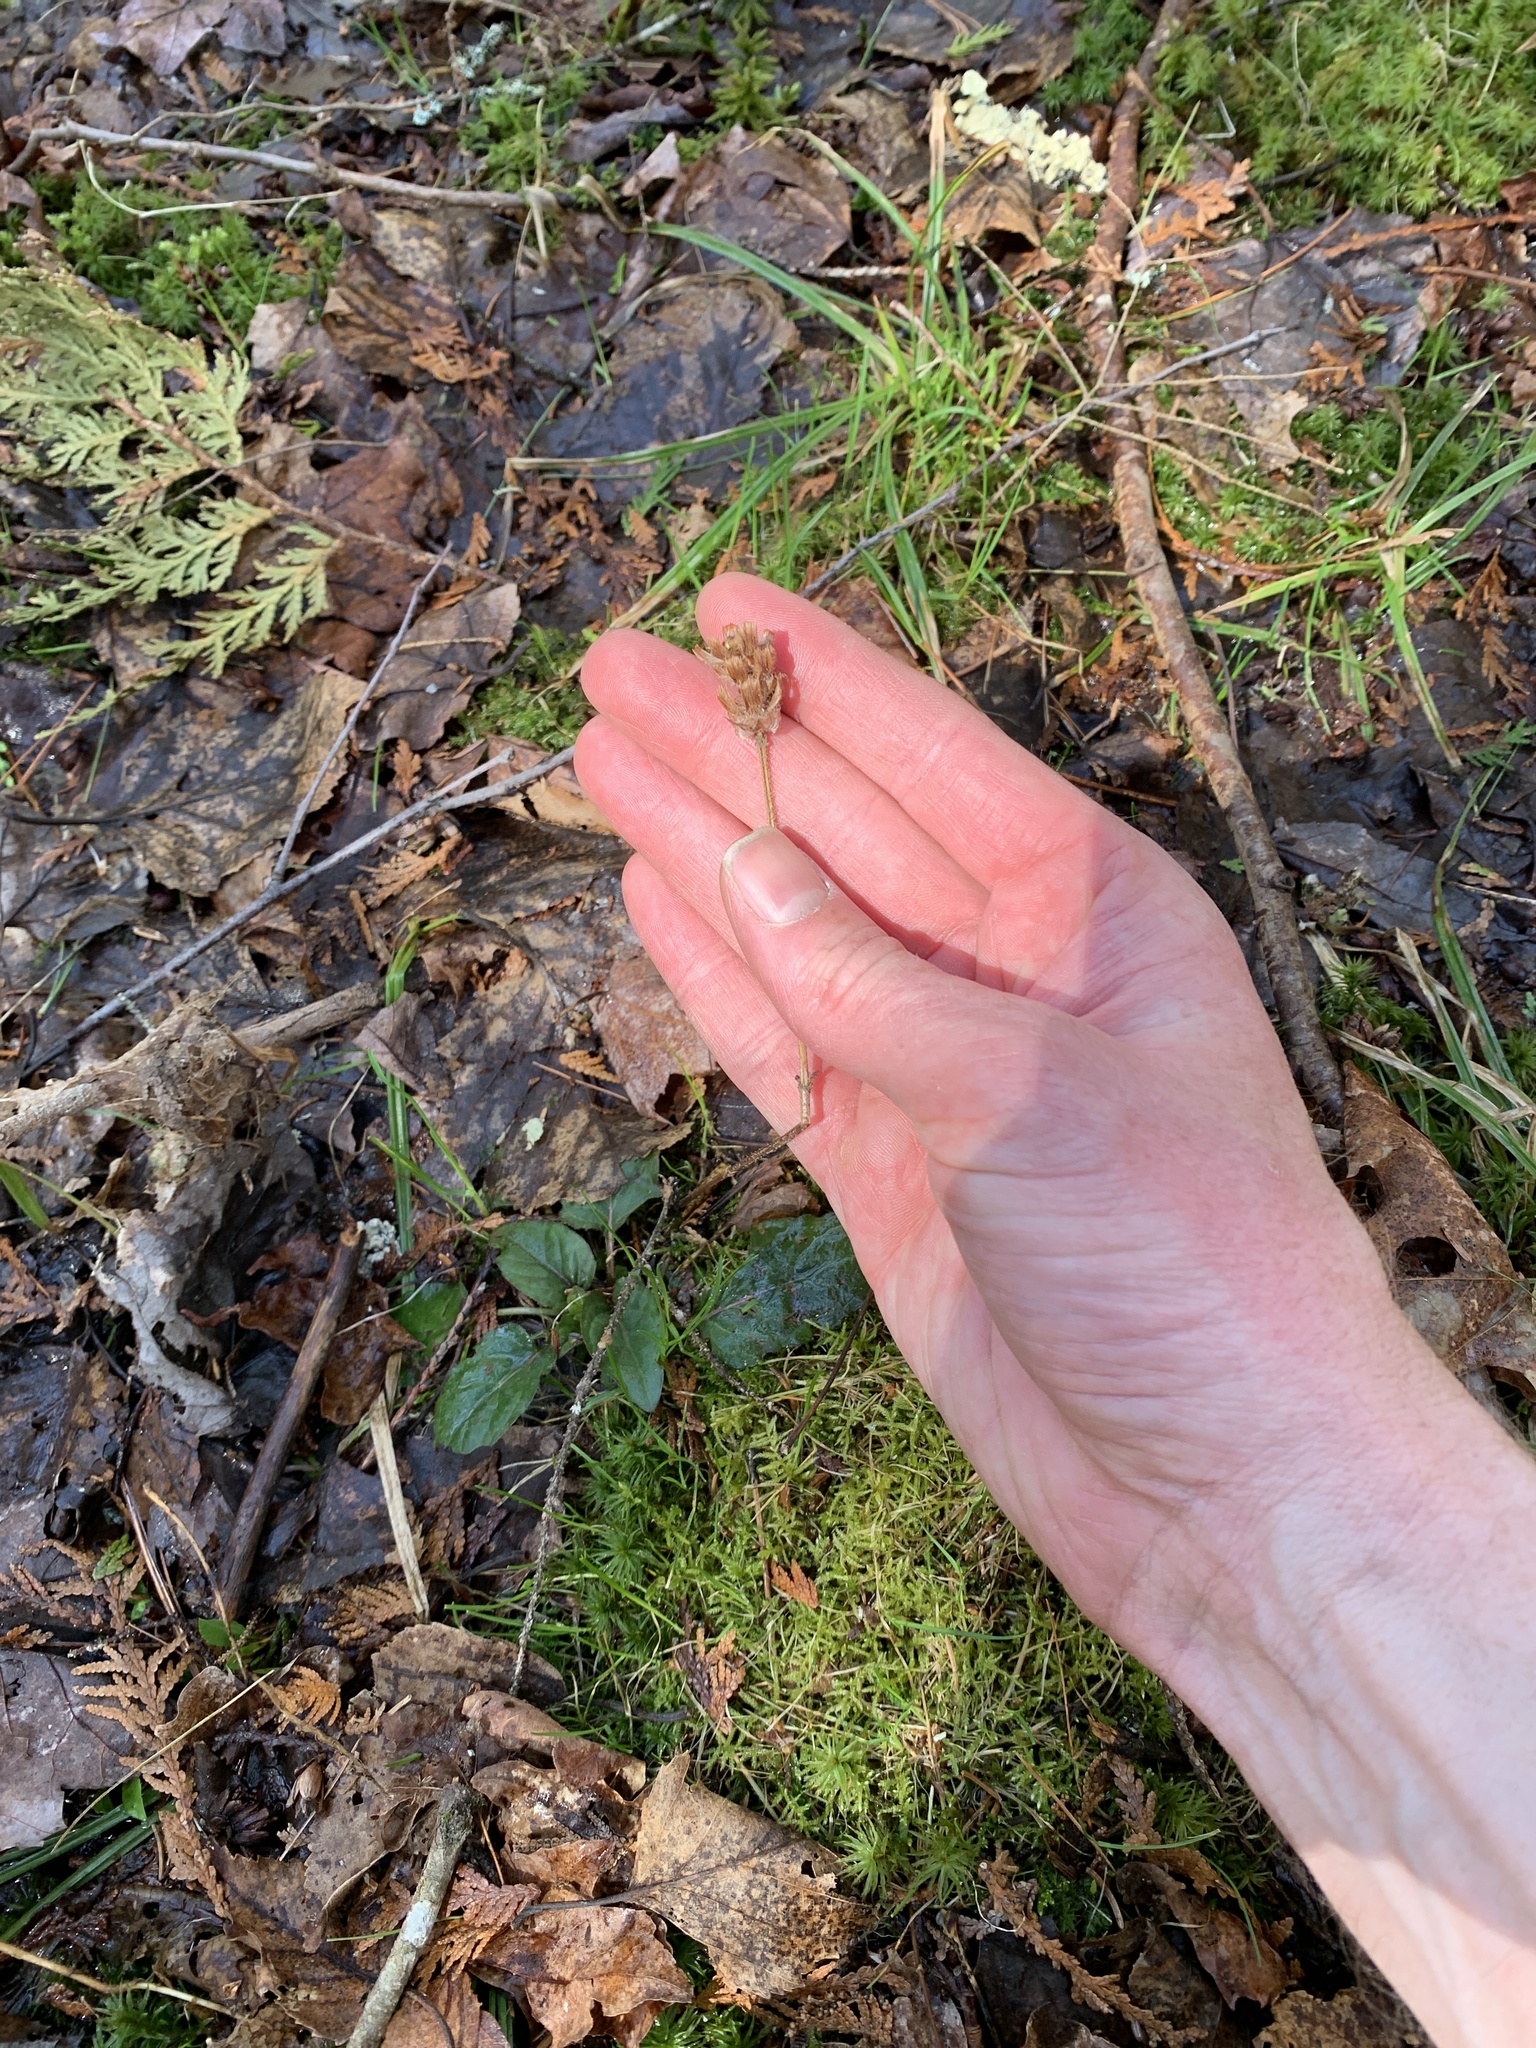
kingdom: Plantae
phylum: Tracheophyta
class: Magnoliopsida
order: Lamiales
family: Lamiaceae
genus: Prunella
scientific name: Prunella vulgaris
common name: Heal-all
